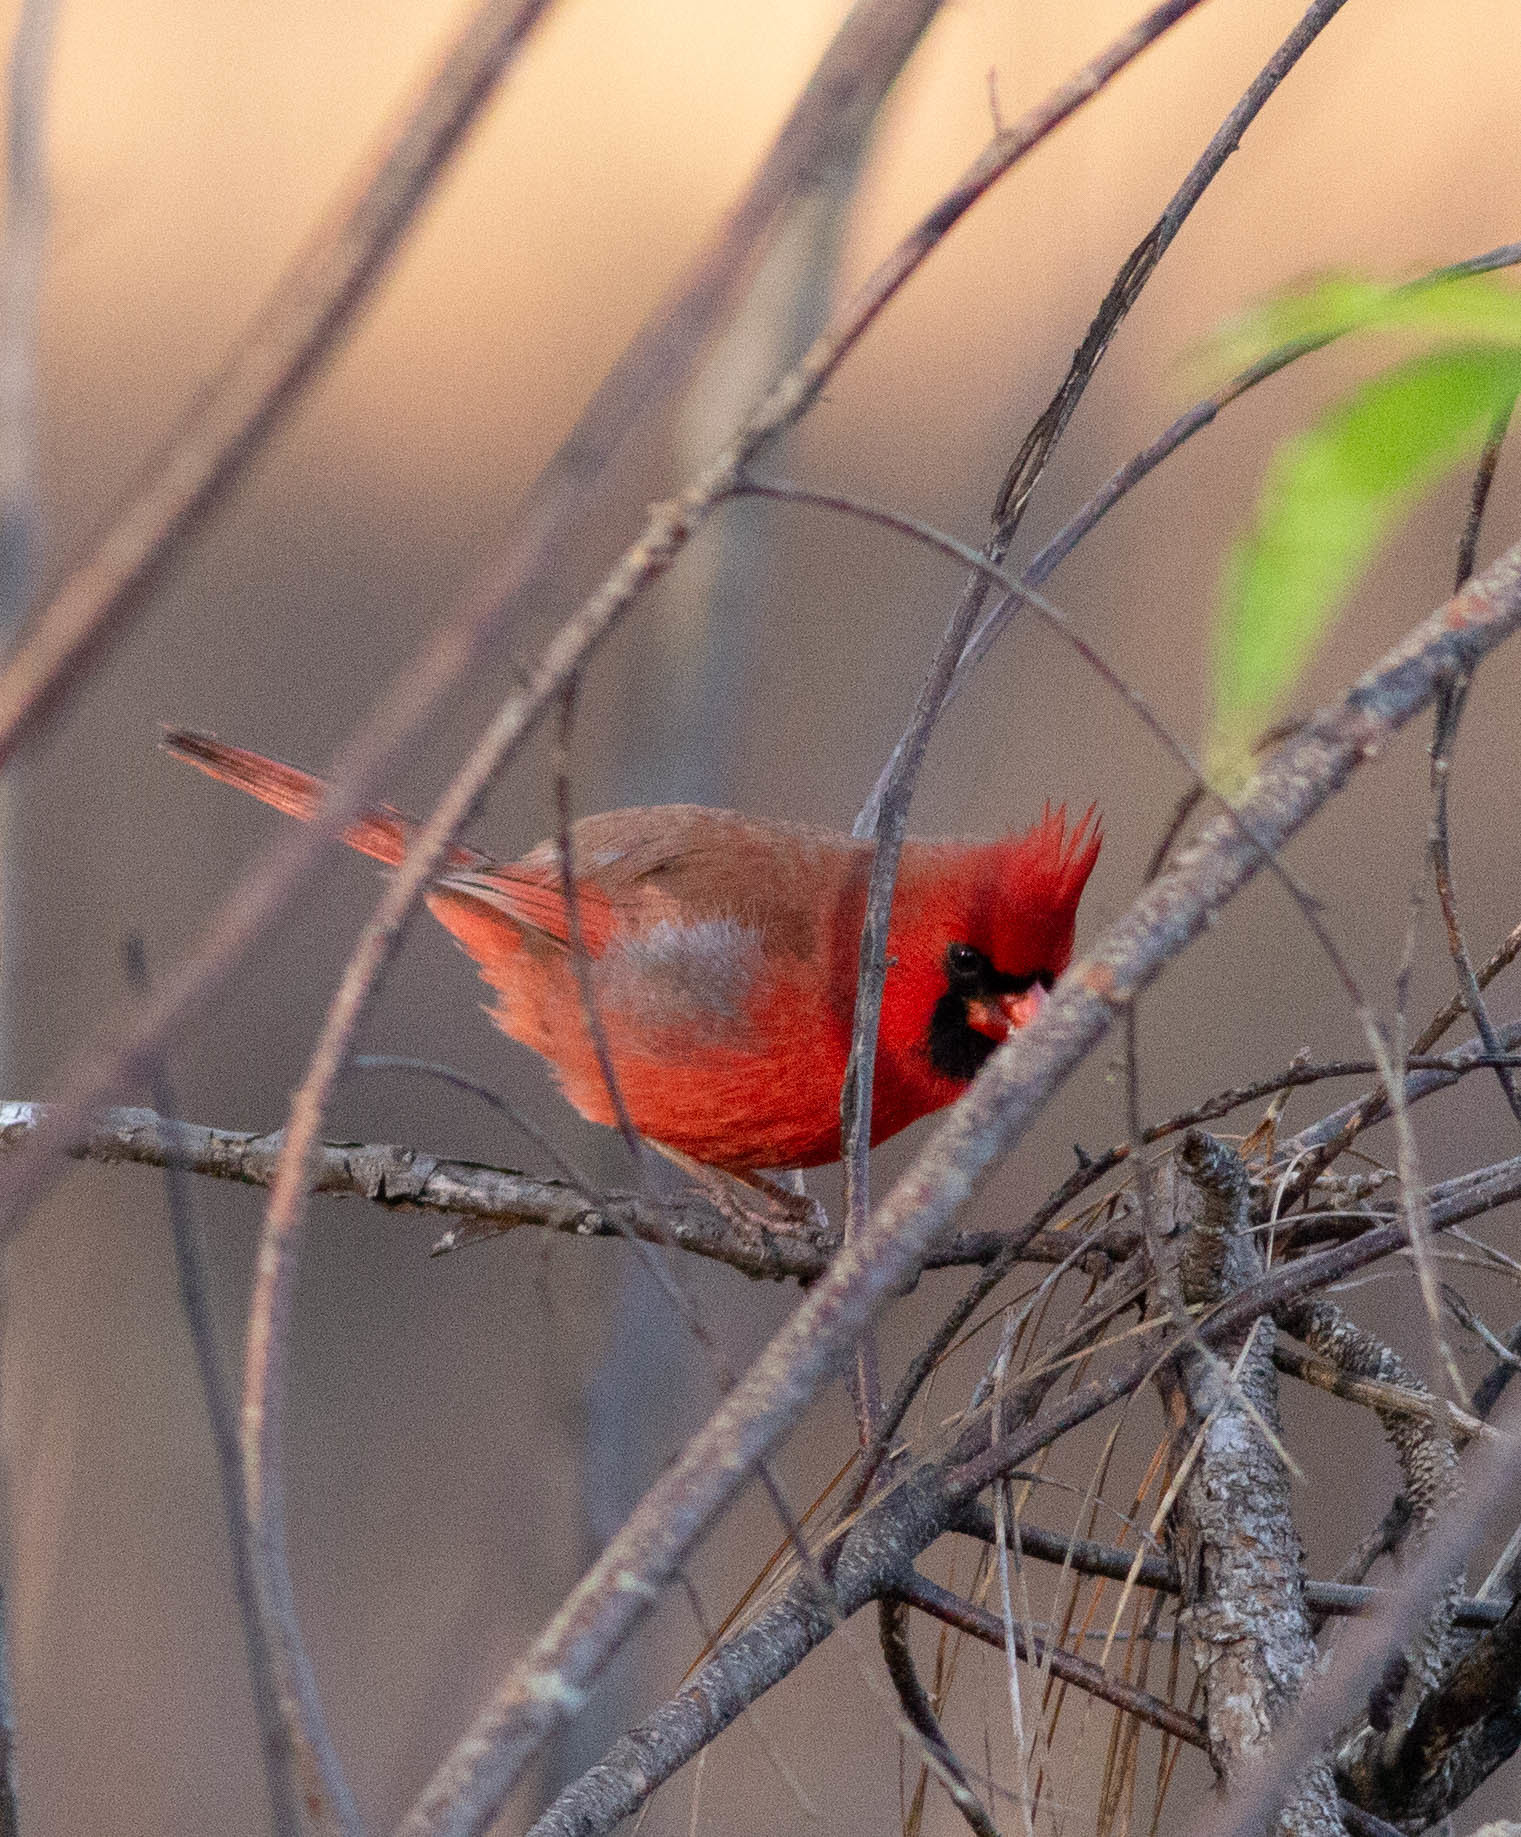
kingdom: Animalia
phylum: Chordata
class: Aves
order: Passeriformes
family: Cardinalidae
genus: Cardinalis
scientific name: Cardinalis cardinalis
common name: Northern cardinal
